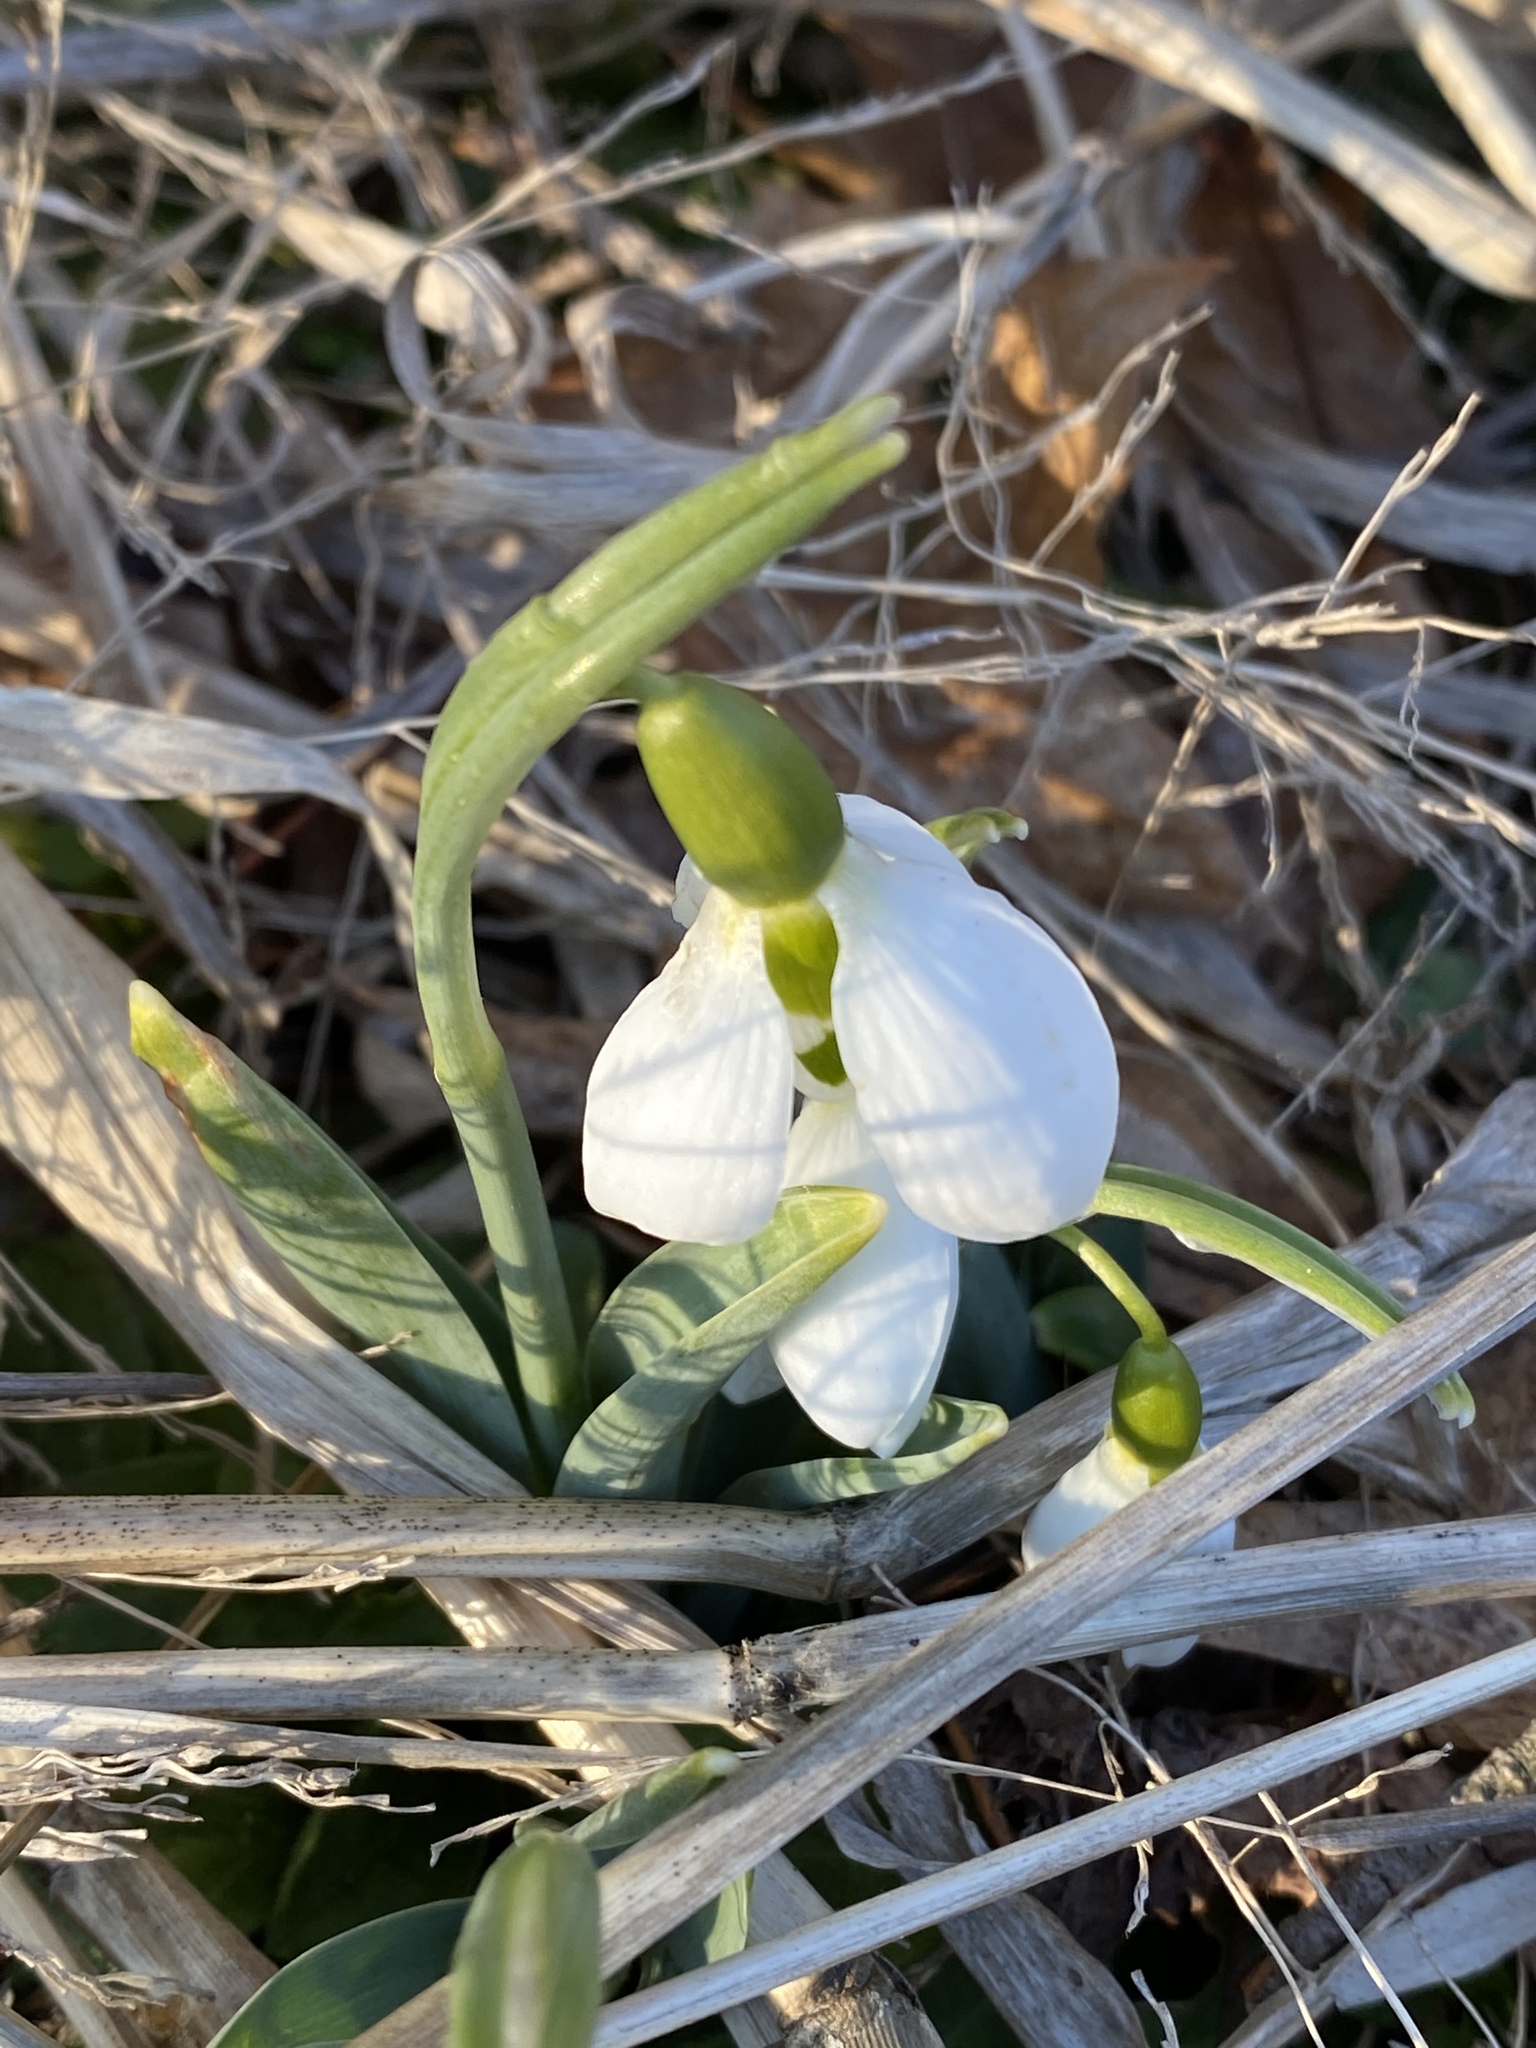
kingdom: Plantae
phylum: Tracheophyta
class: Liliopsida
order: Asparagales
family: Amaryllidaceae
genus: Galanthus
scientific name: Galanthus elwesii
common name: Greater snowdrop
